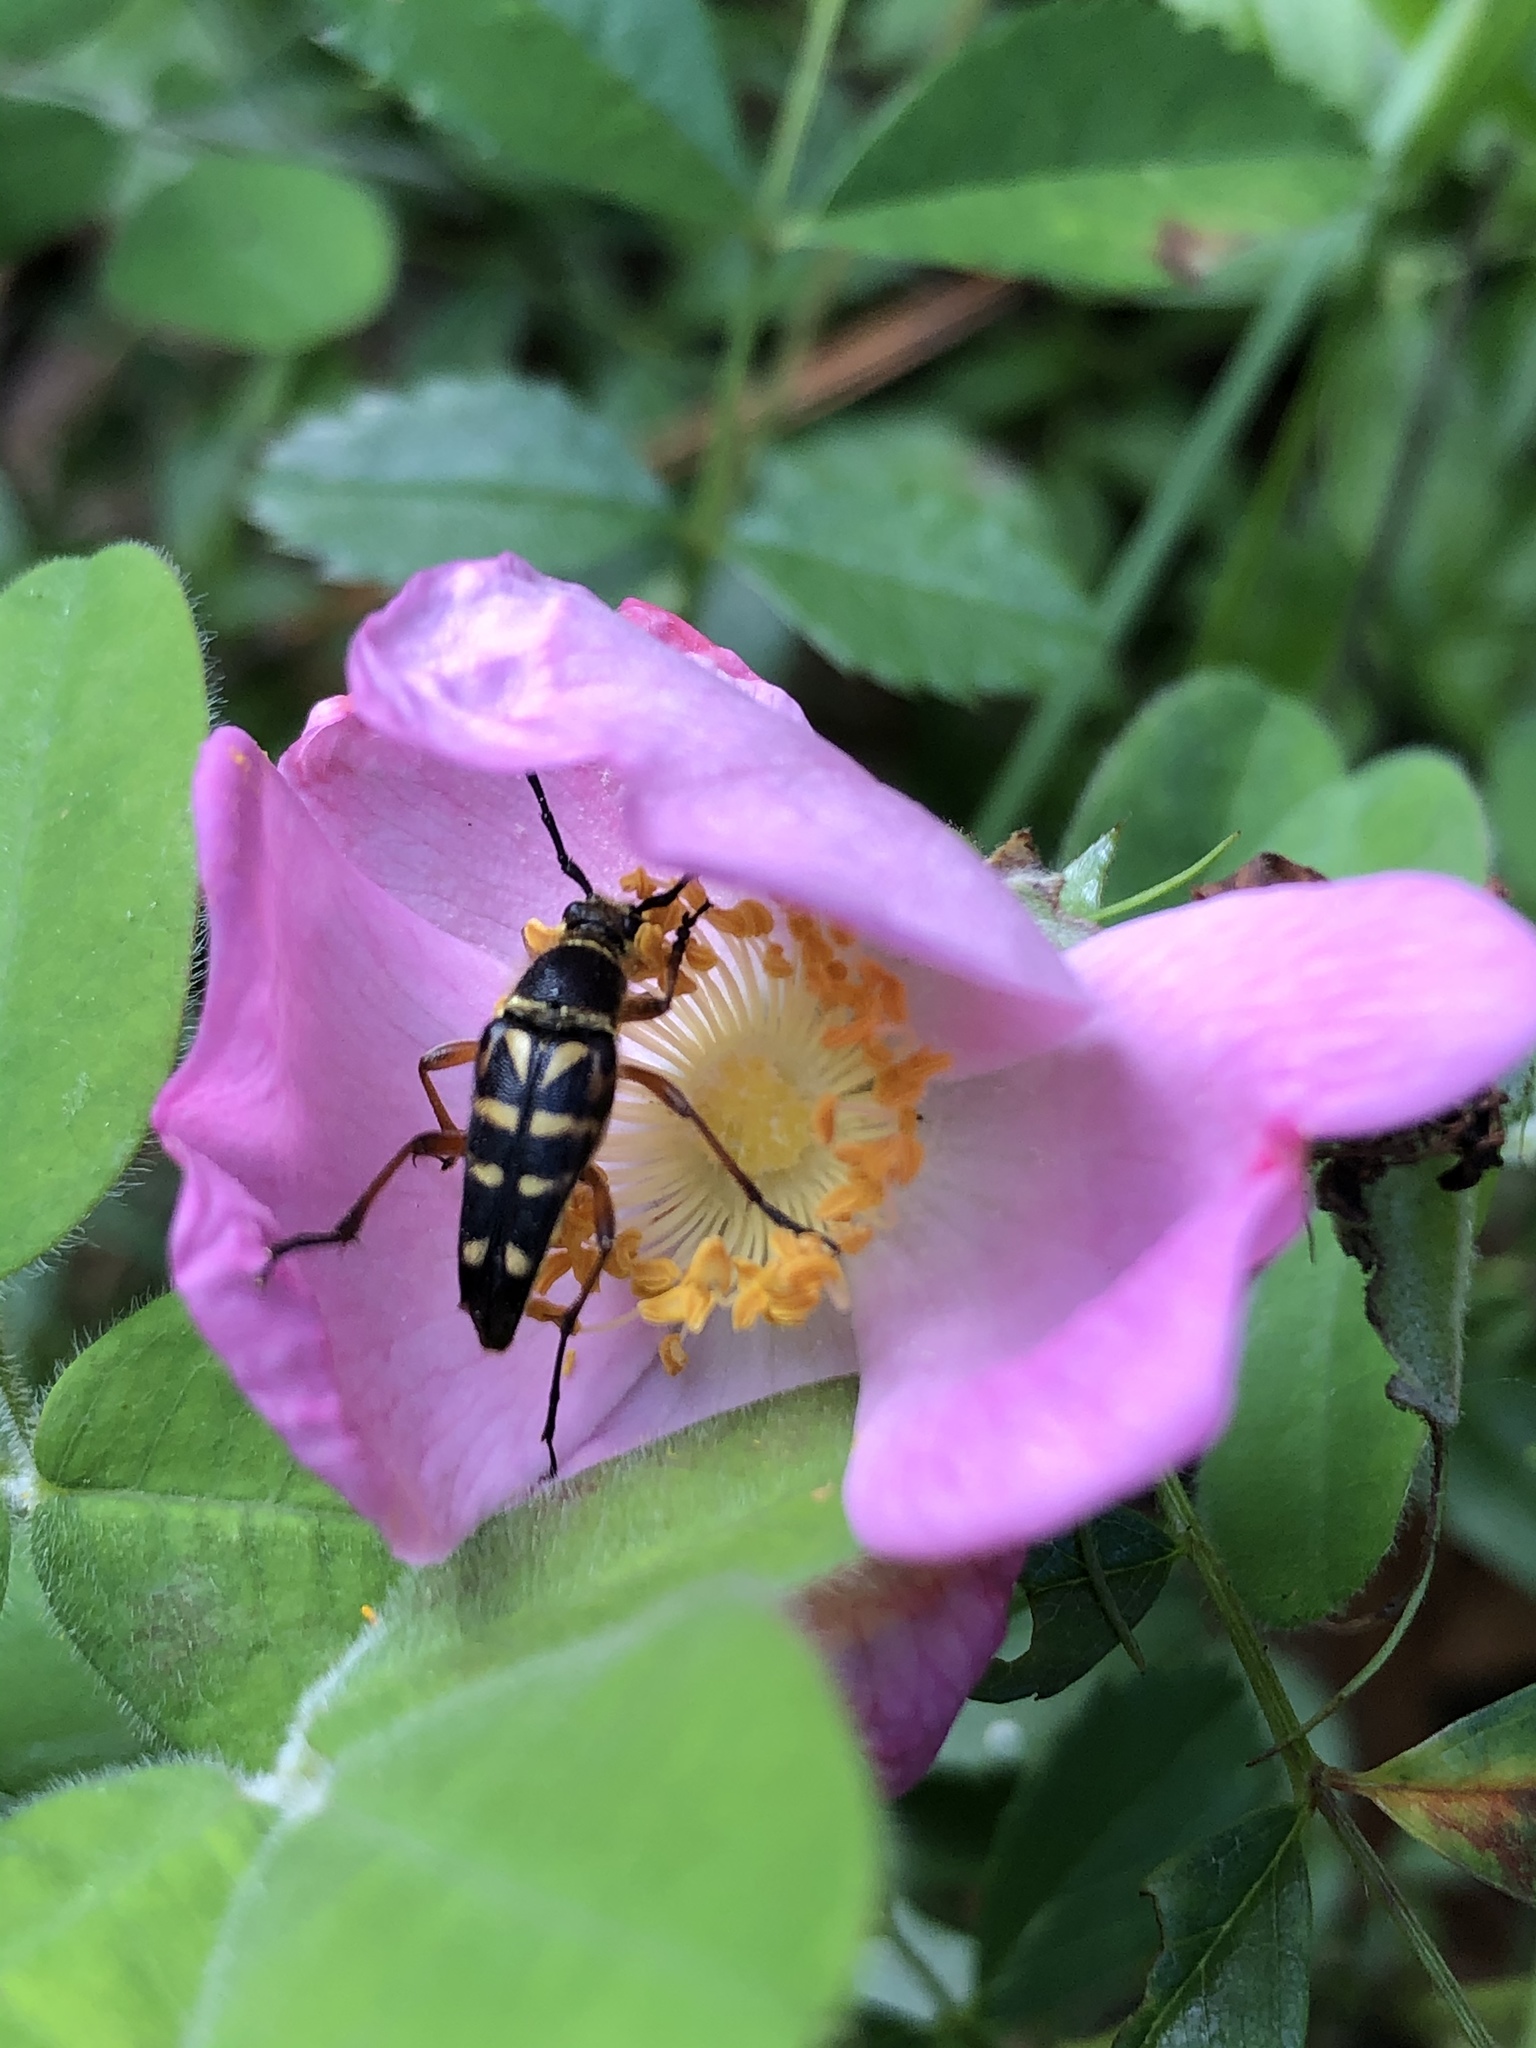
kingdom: Animalia
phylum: Arthropoda
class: Insecta
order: Coleoptera
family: Cerambycidae
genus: Typocerus
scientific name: Typocerus zebra
